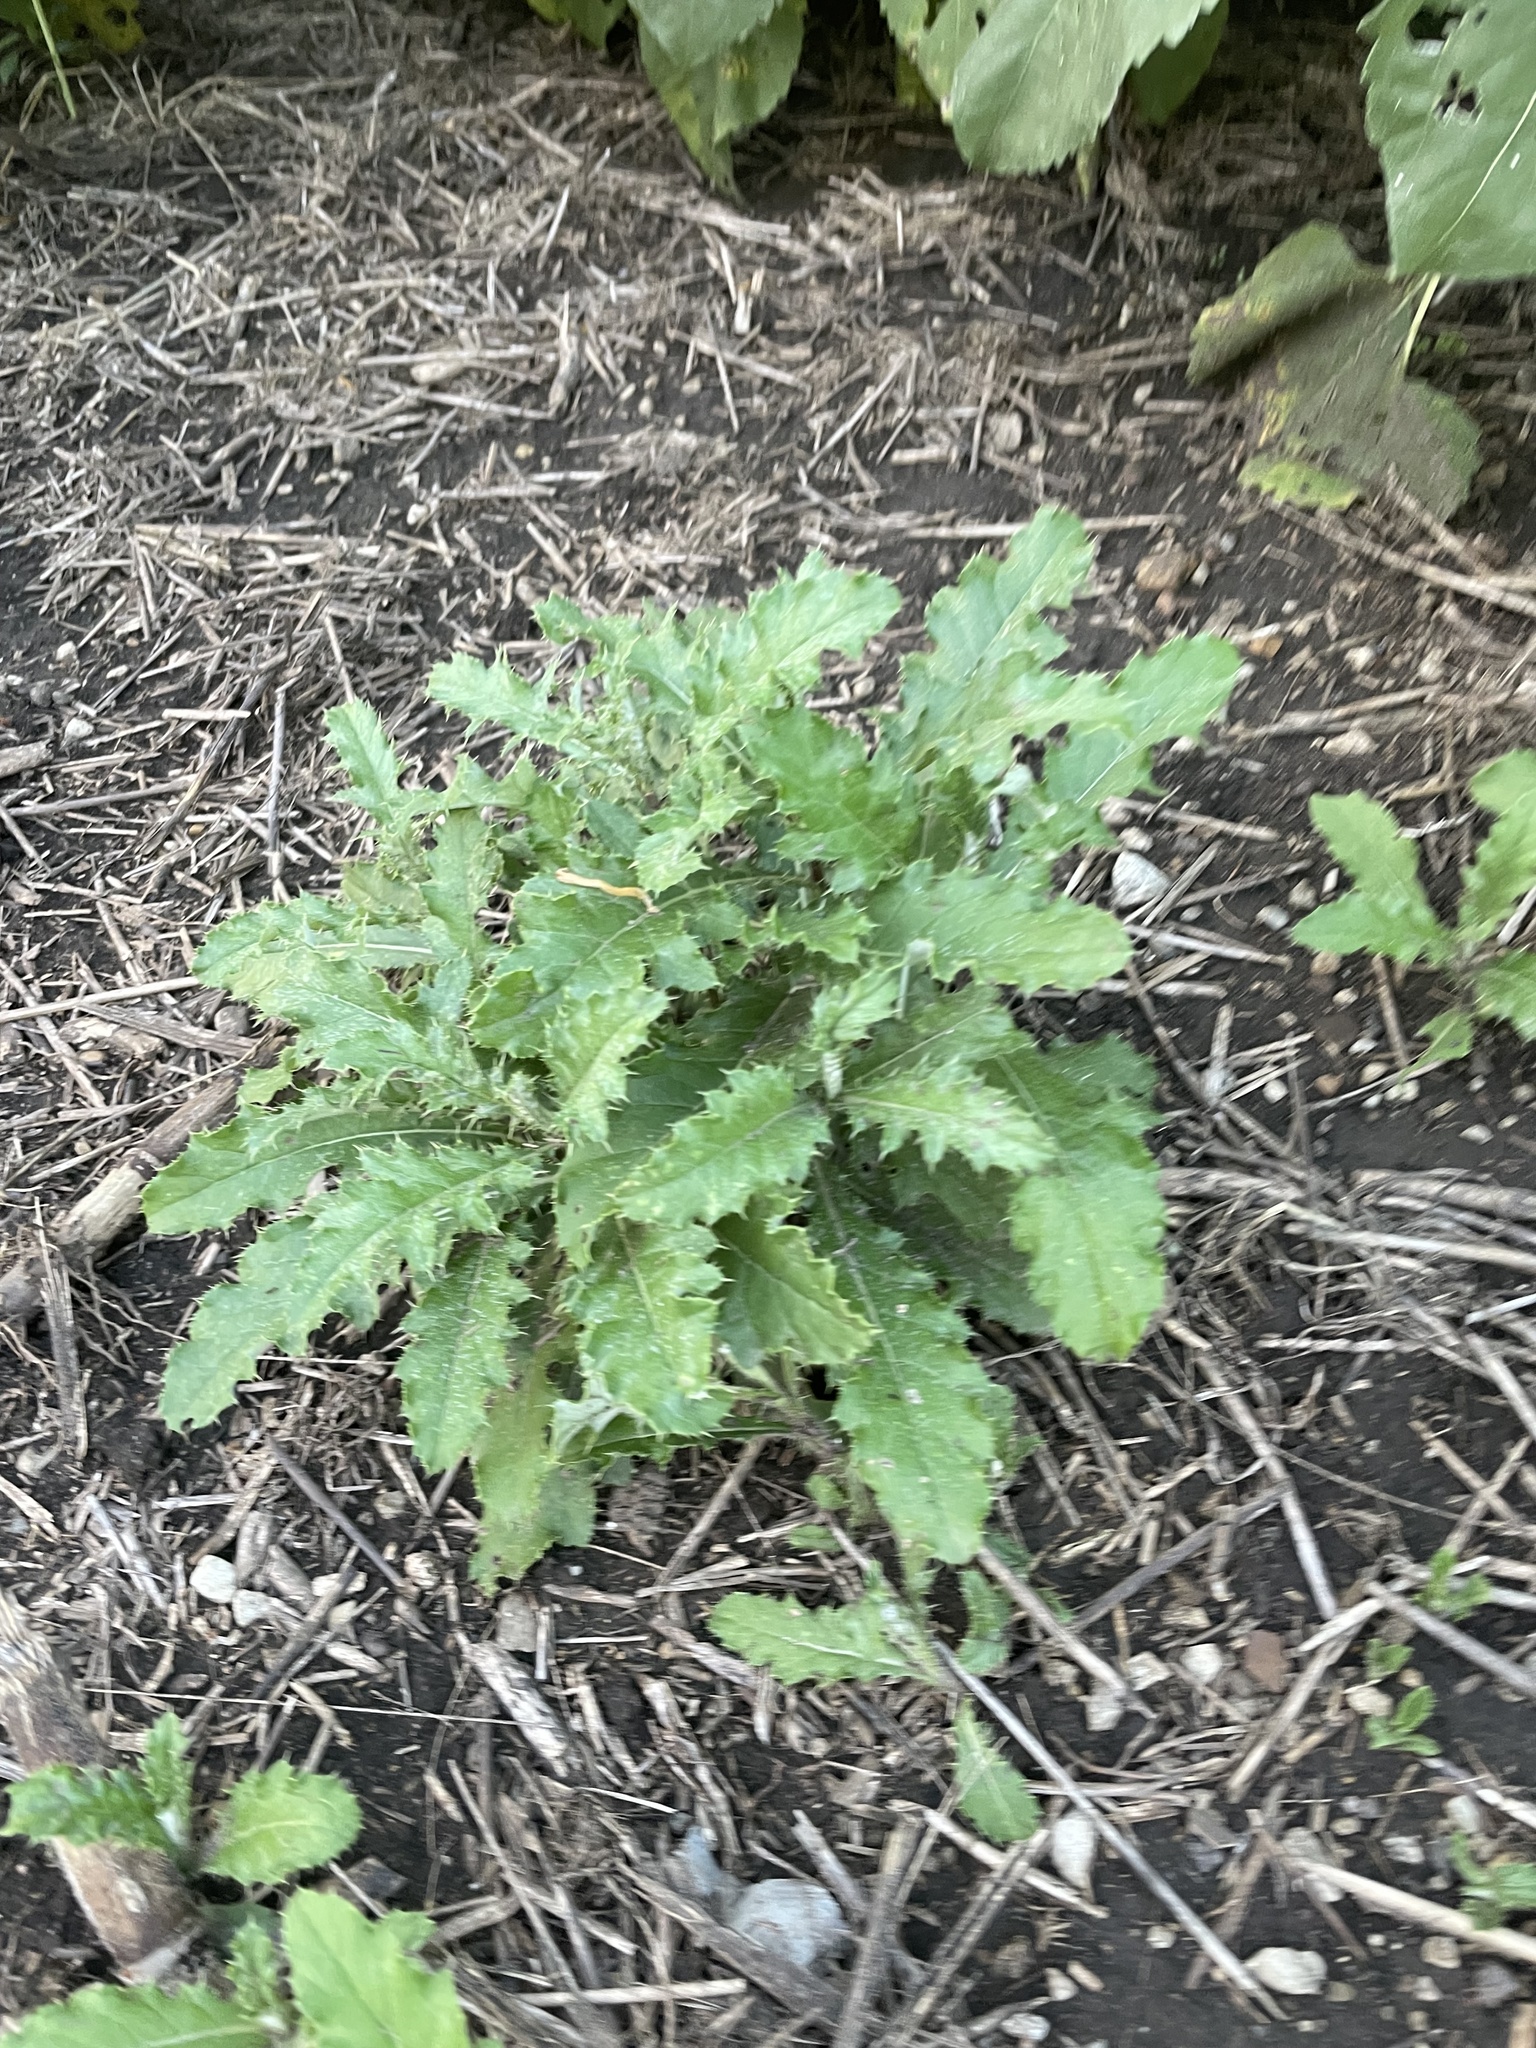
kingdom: Plantae
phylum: Tracheophyta
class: Magnoliopsida
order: Asterales
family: Asteraceae
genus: Cirsium
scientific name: Cirsium arvense
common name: Creeping thistle
